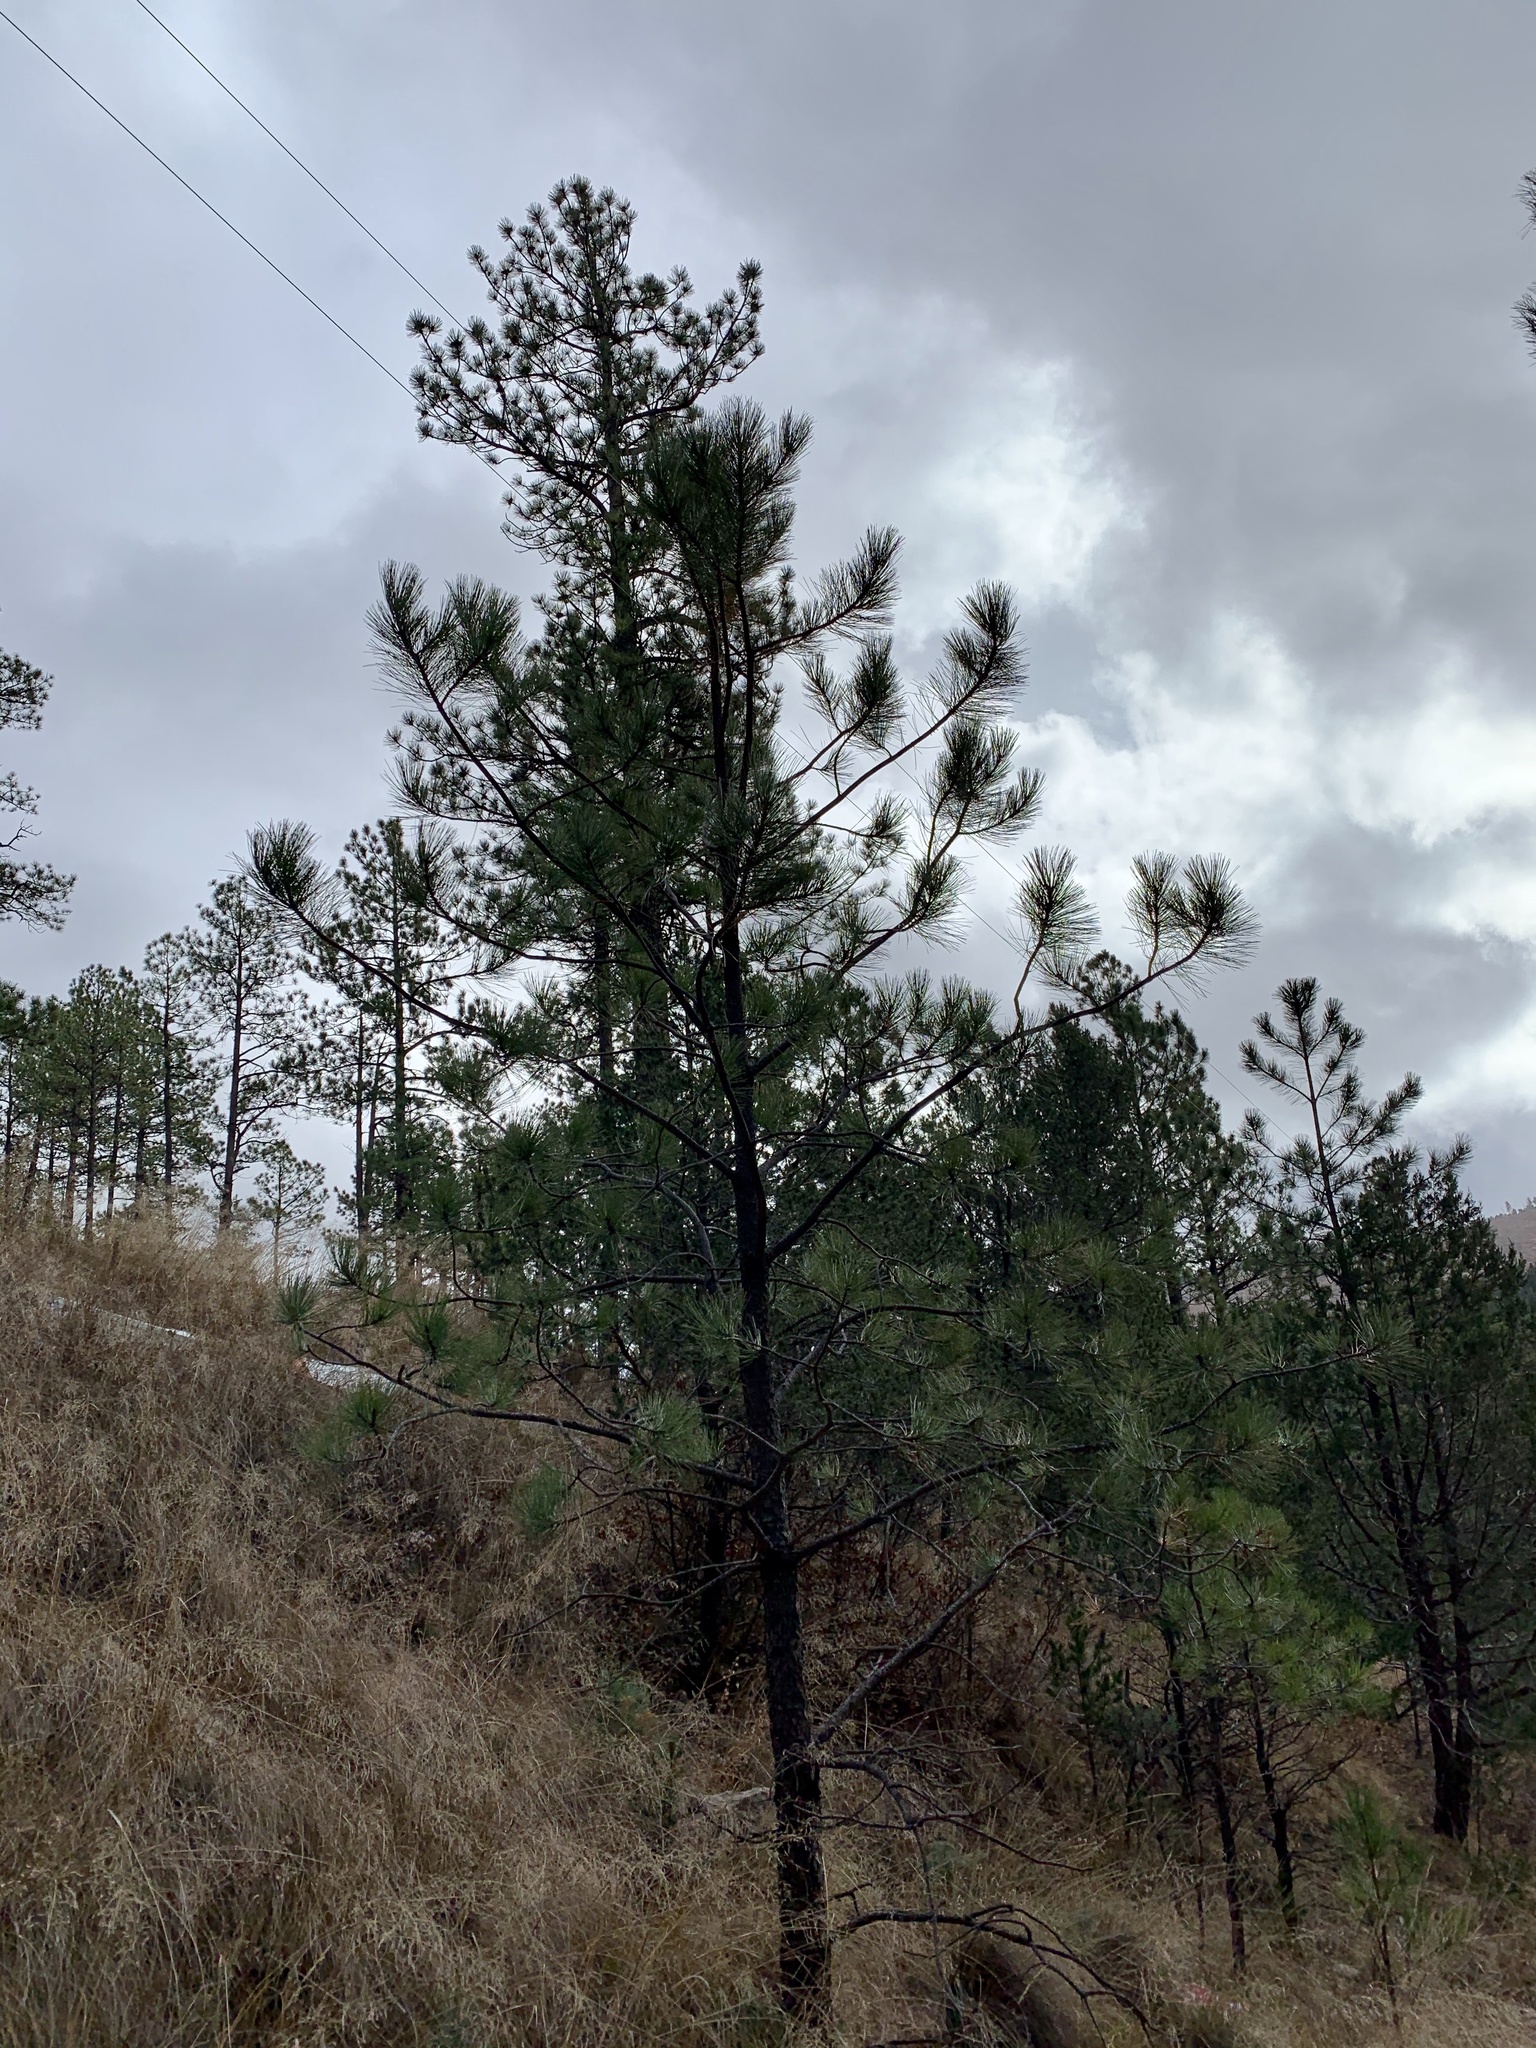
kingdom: Plantae
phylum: Tracheophyta
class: Pinopsida
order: Pinales
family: Pinaceae
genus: Pinus
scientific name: Pinus ponderosa
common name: Western yellow-pine
